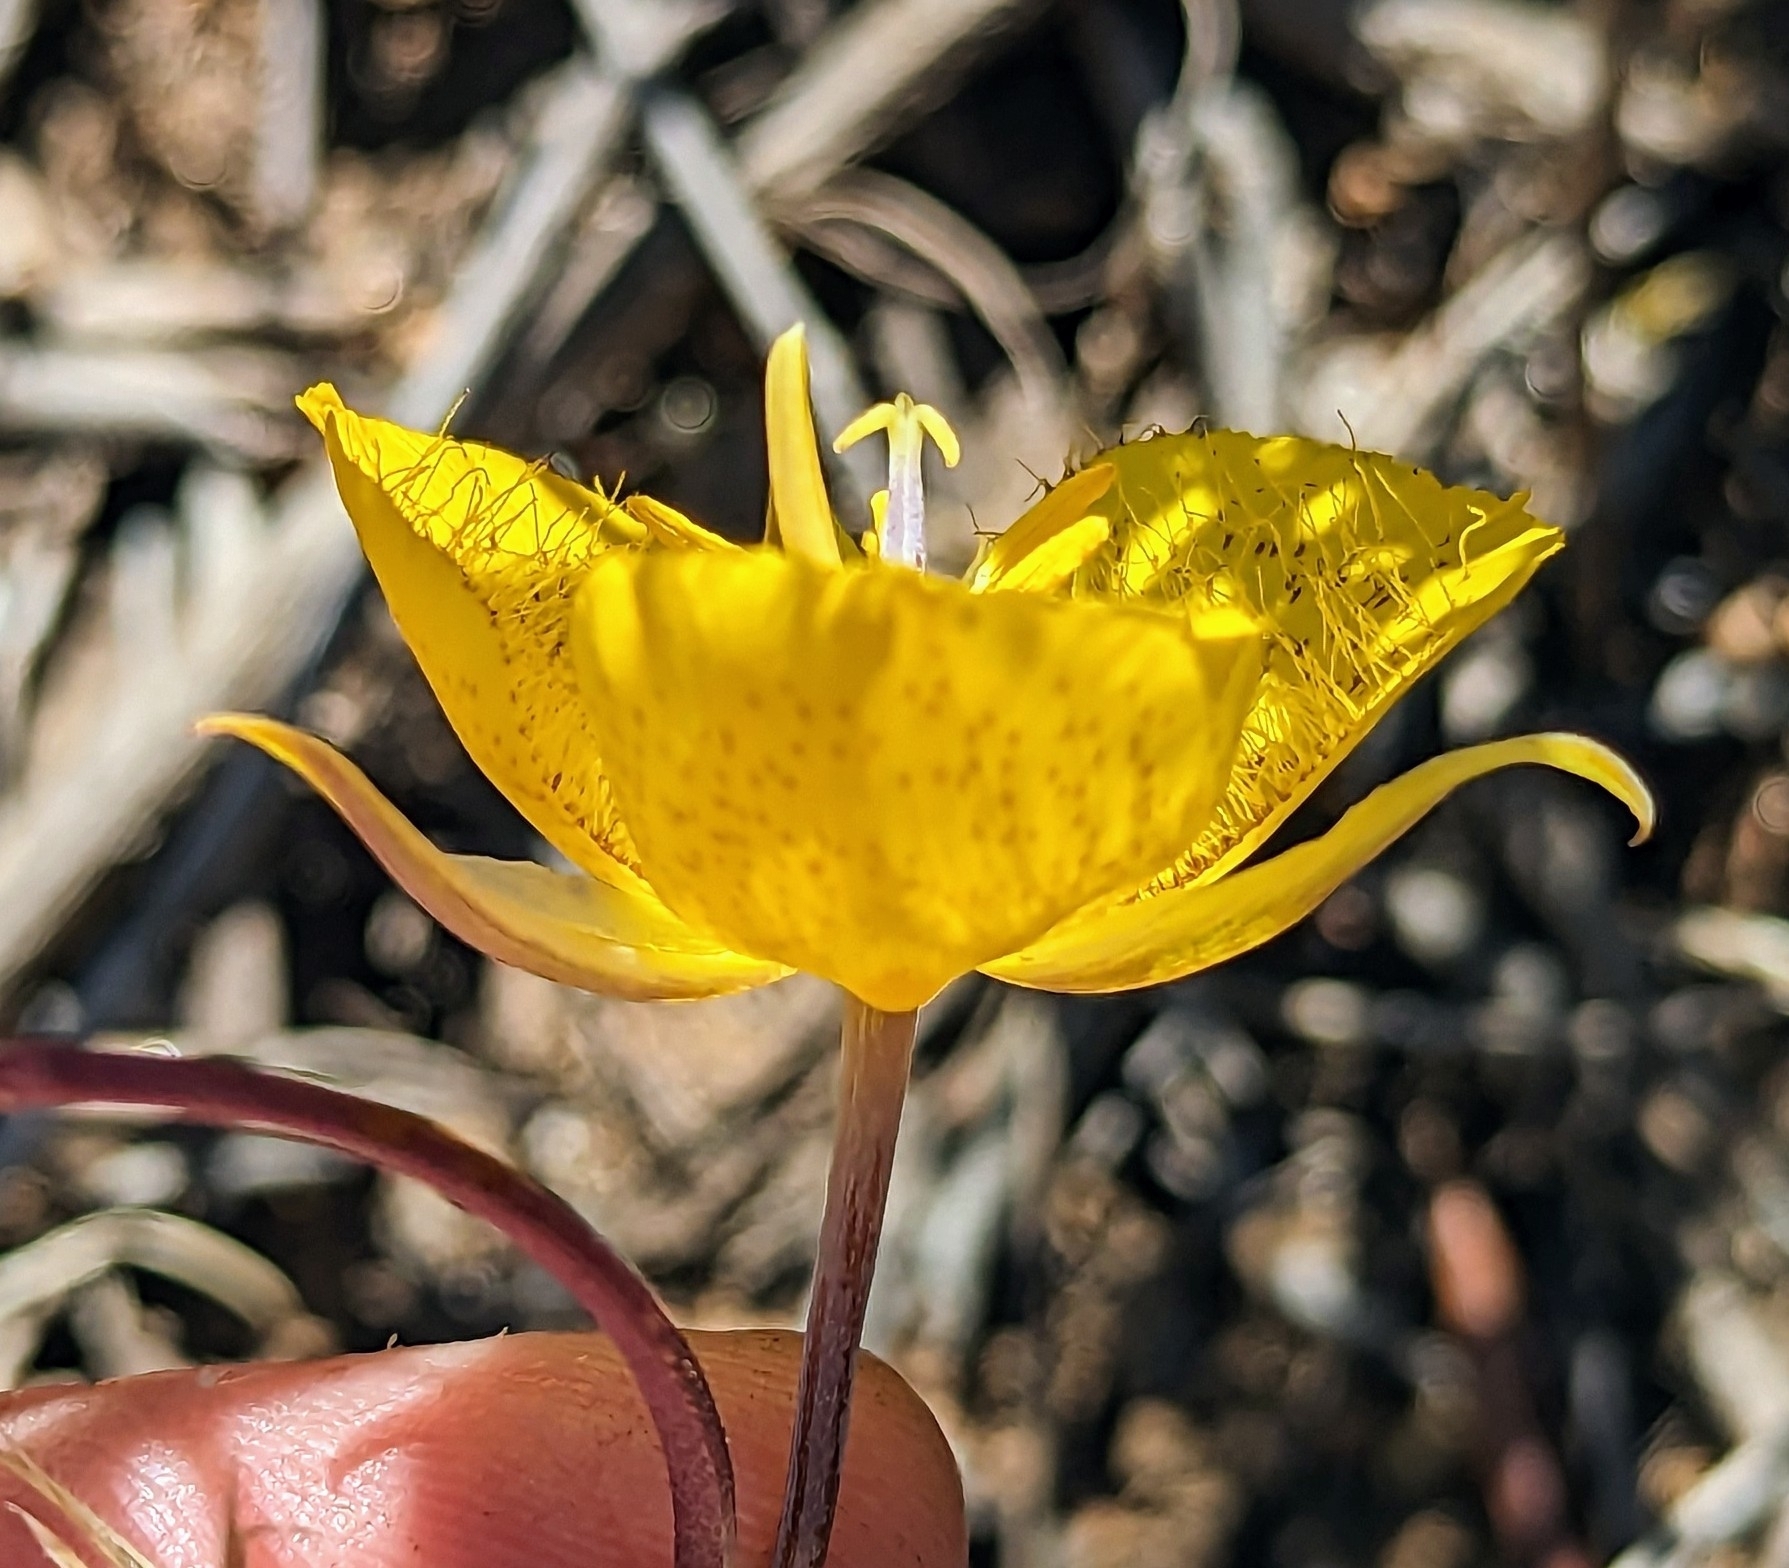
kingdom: Plantae
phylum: Tracheophyta
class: Liliopsida
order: Liliales
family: Liliaceae
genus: Calochortus
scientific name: Calochortus weedii
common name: Weed's mariposa-lily
